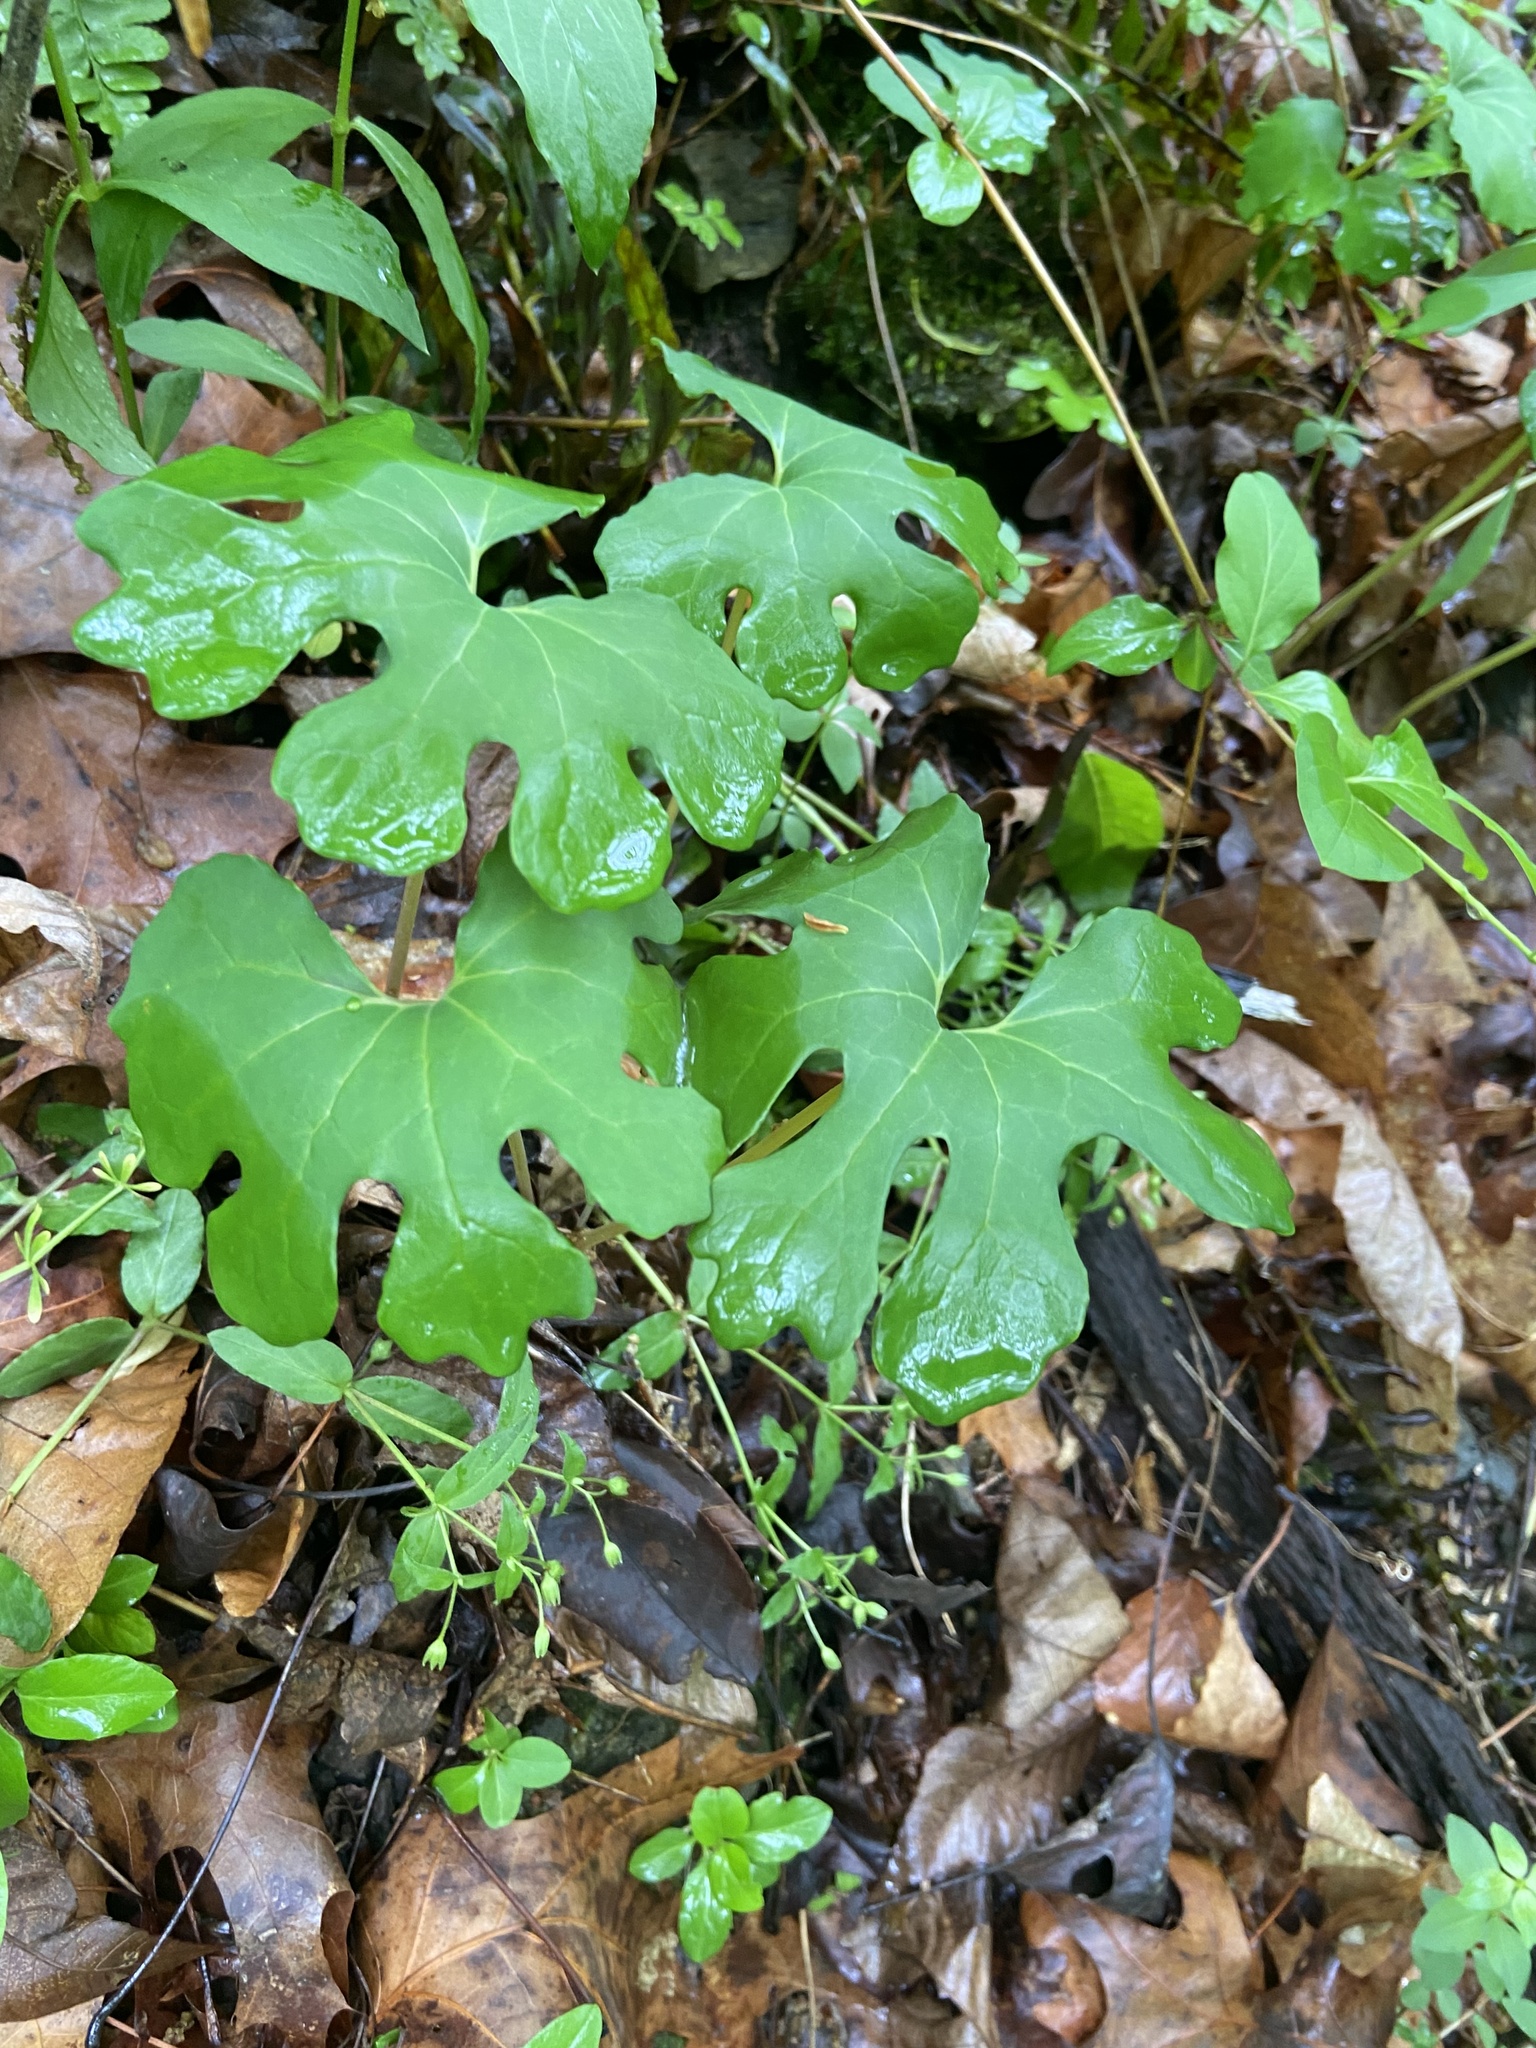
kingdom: Plantae
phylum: Tracheophyta
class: Magnoliopsida
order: Ranunculales
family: Papaveraceae
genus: Sanguinaria
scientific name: Sanguinaria canadensis
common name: Bloodroot
